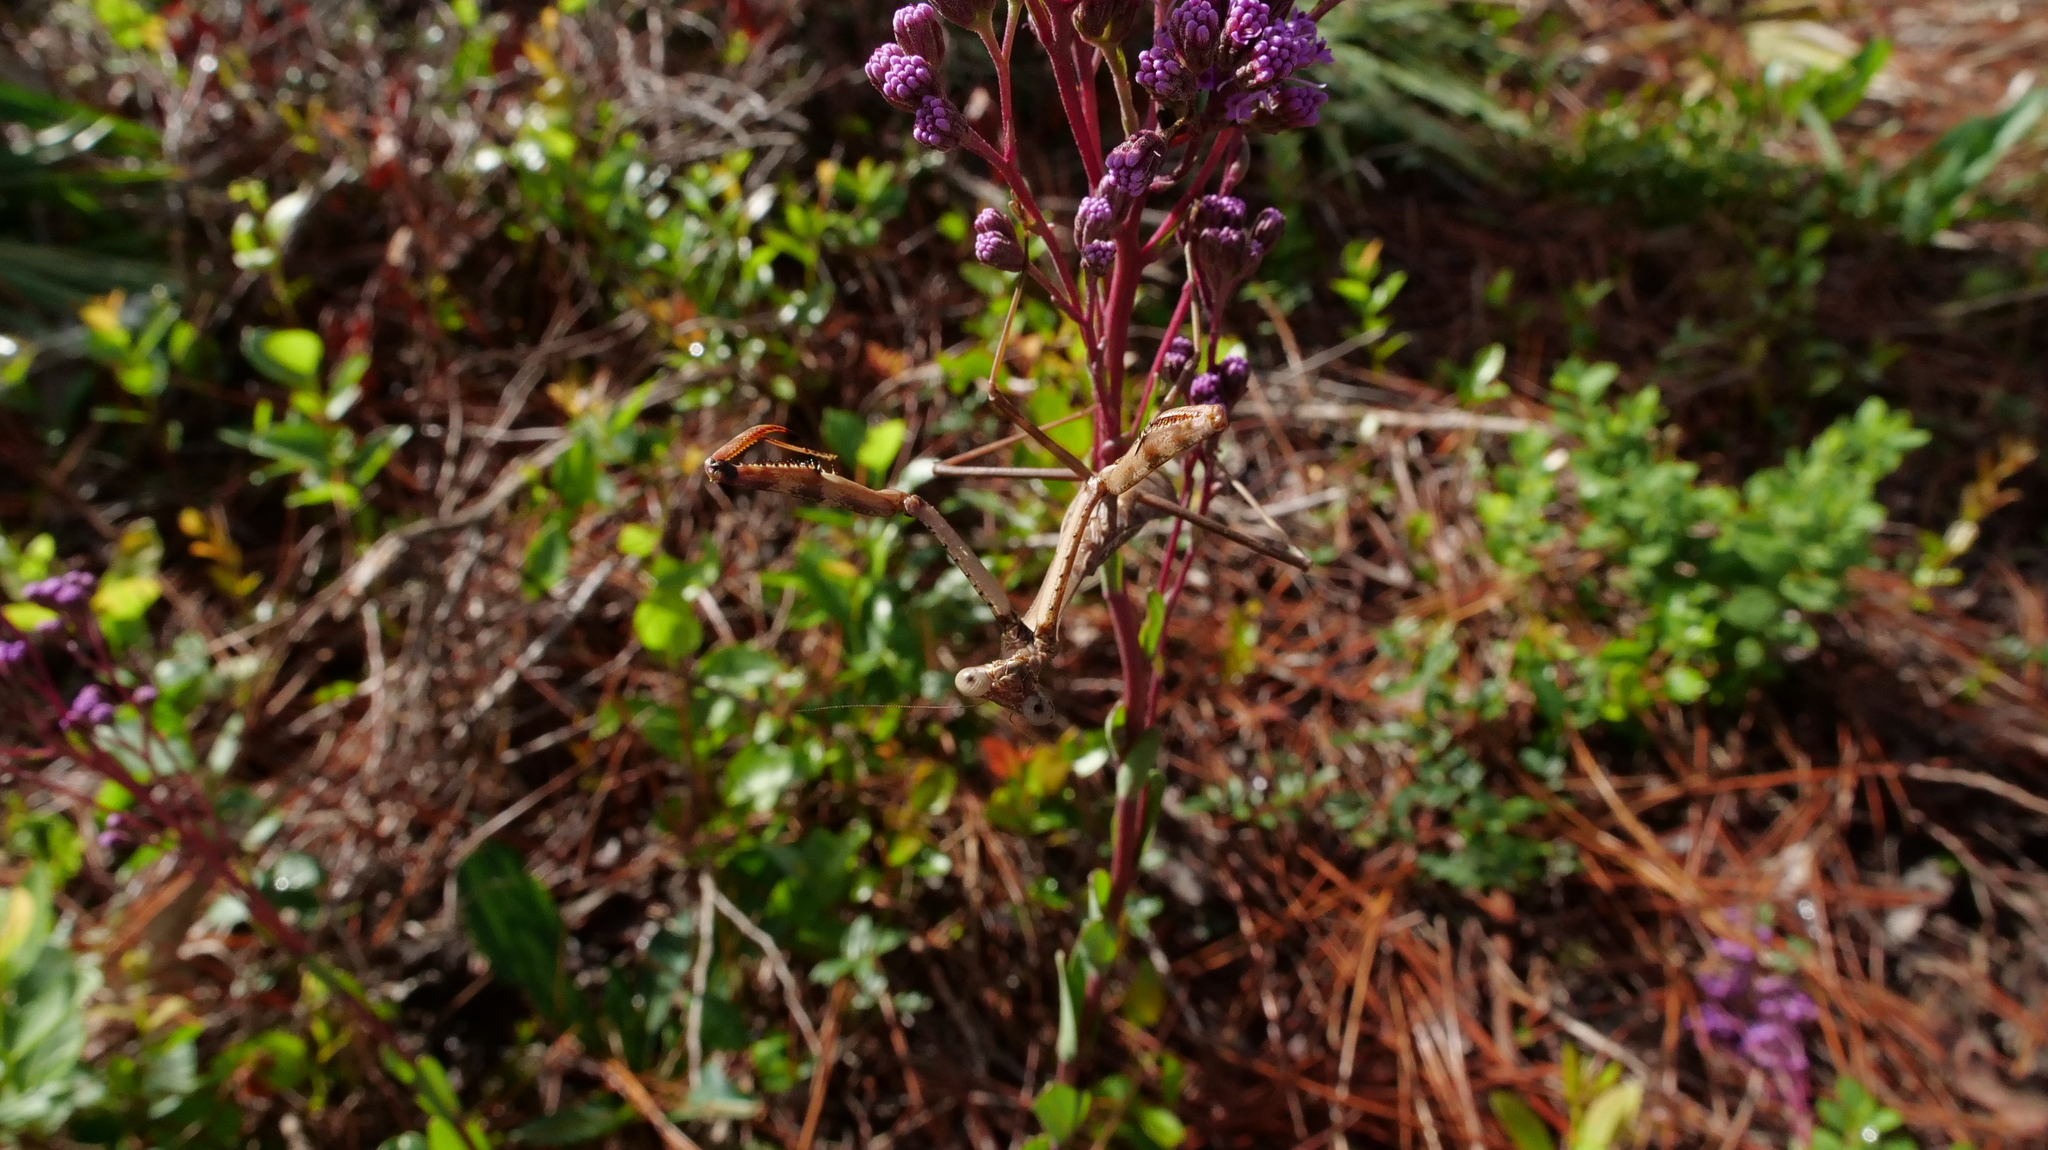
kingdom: Animalia
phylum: Arthropoda
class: Insecta
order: Mantodea
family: Mantidae
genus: Stagmomantis
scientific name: Stagmomantis carolina
